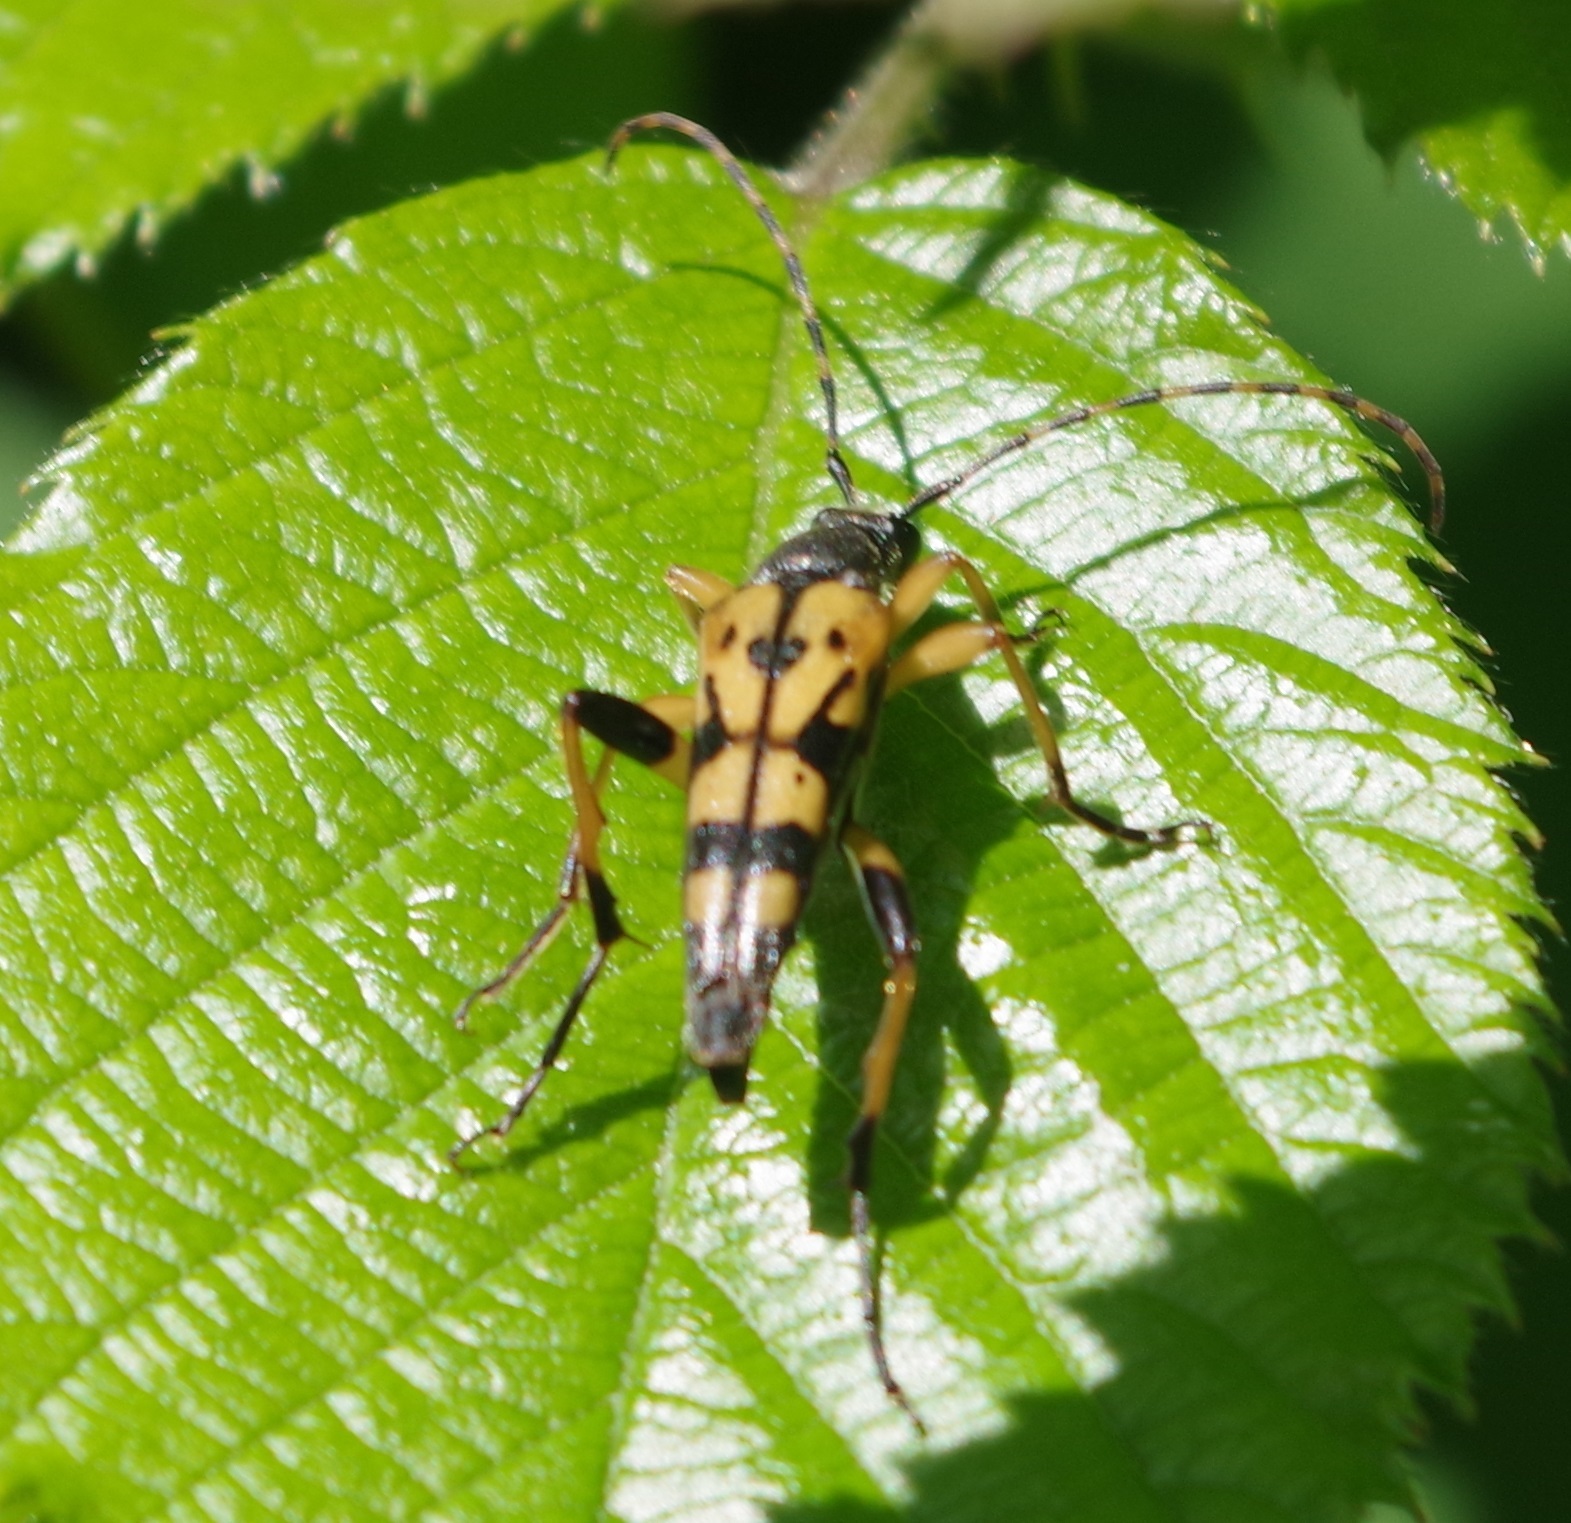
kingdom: Animalia
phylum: Arthropoda
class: Insecta
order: Coleoptera
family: Cerambycidae
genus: Rutpela
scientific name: Rutpela maculata
